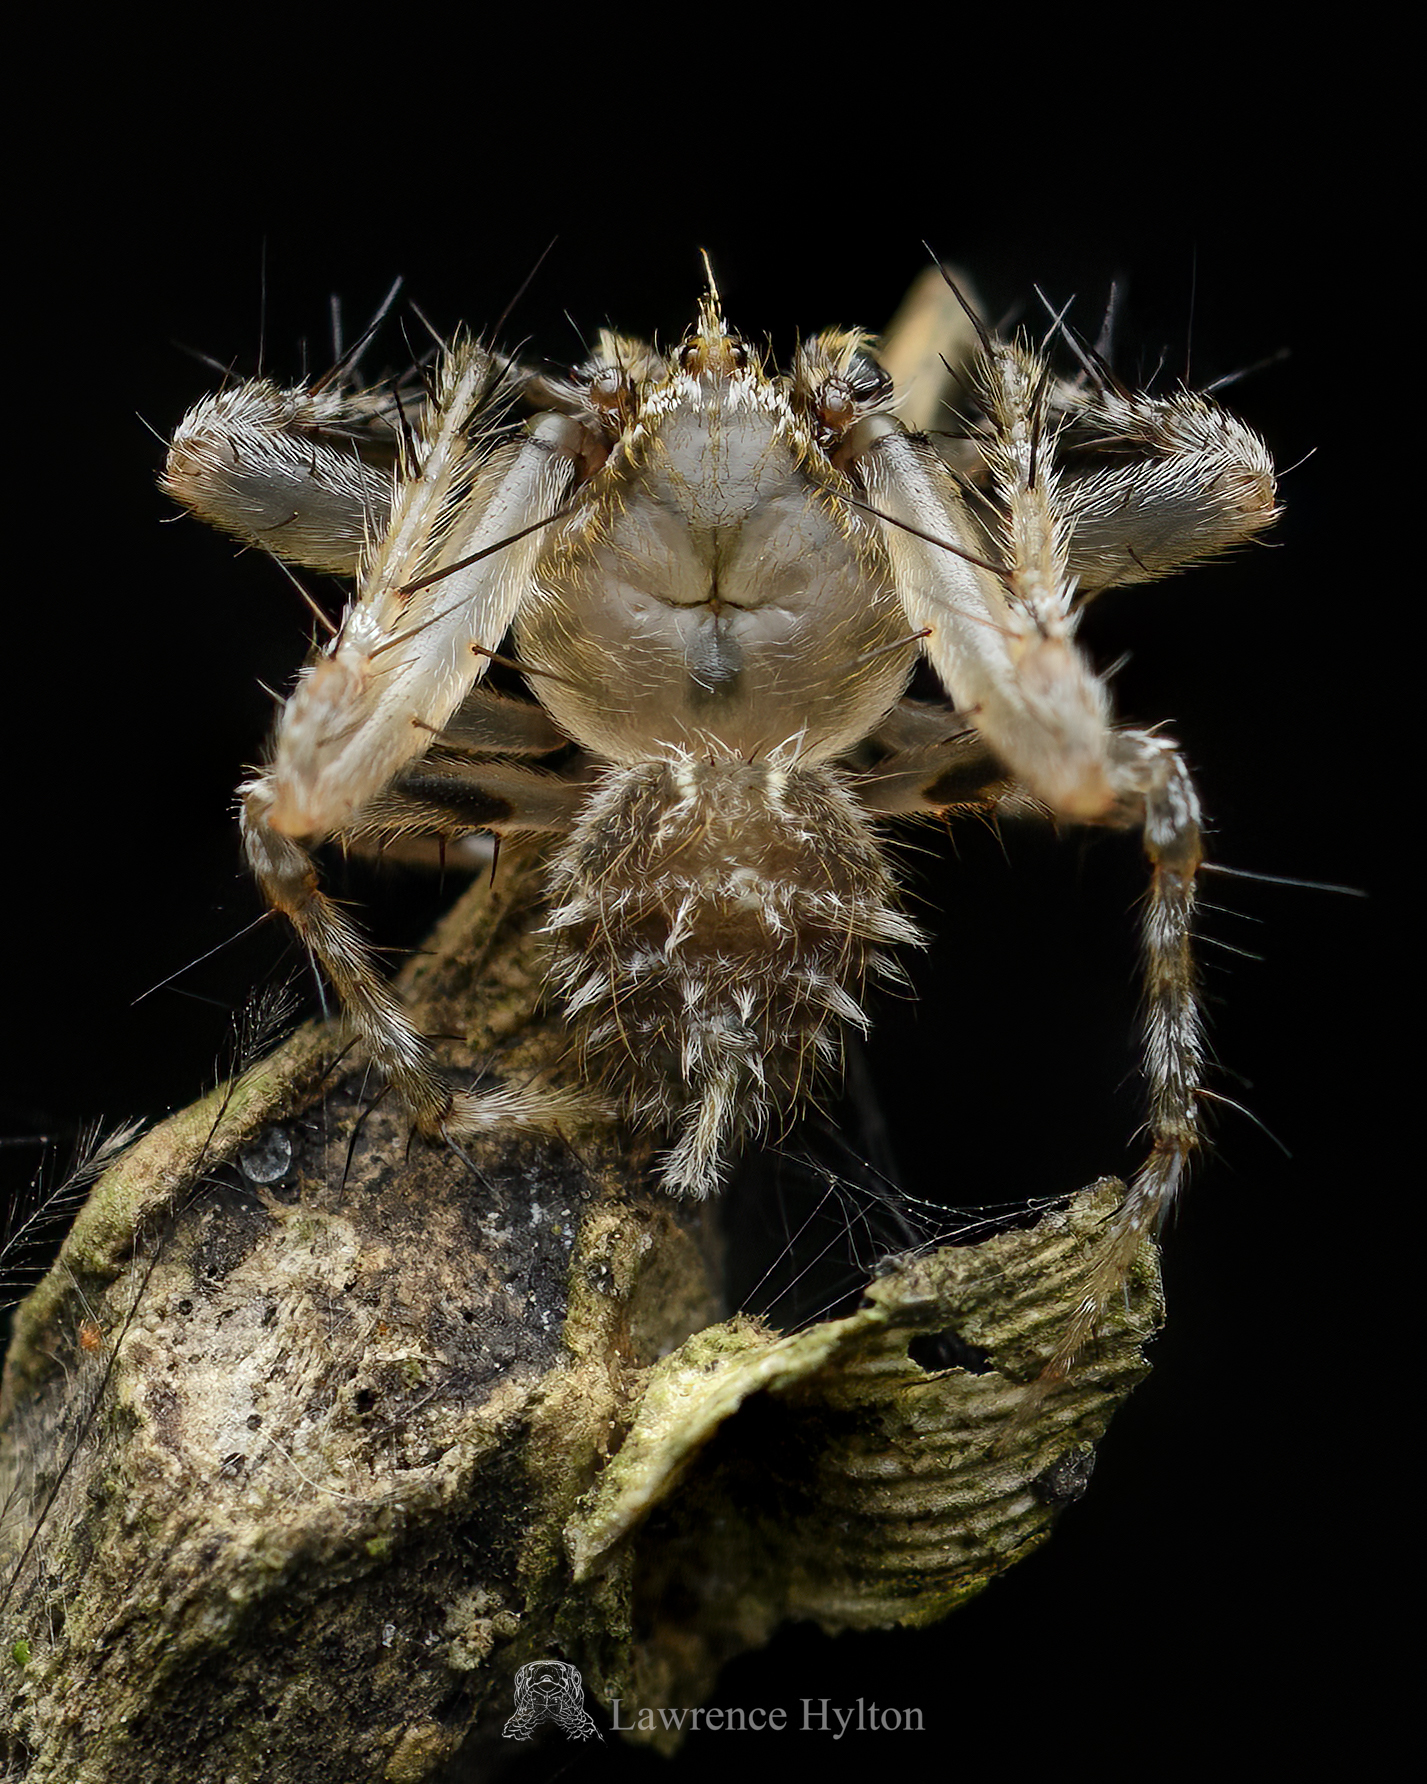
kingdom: Animalia
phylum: Arthropoda
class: Arachnida
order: Araneae
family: Araneidae
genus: Eriovixia
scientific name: Eriovixia laglaizei
